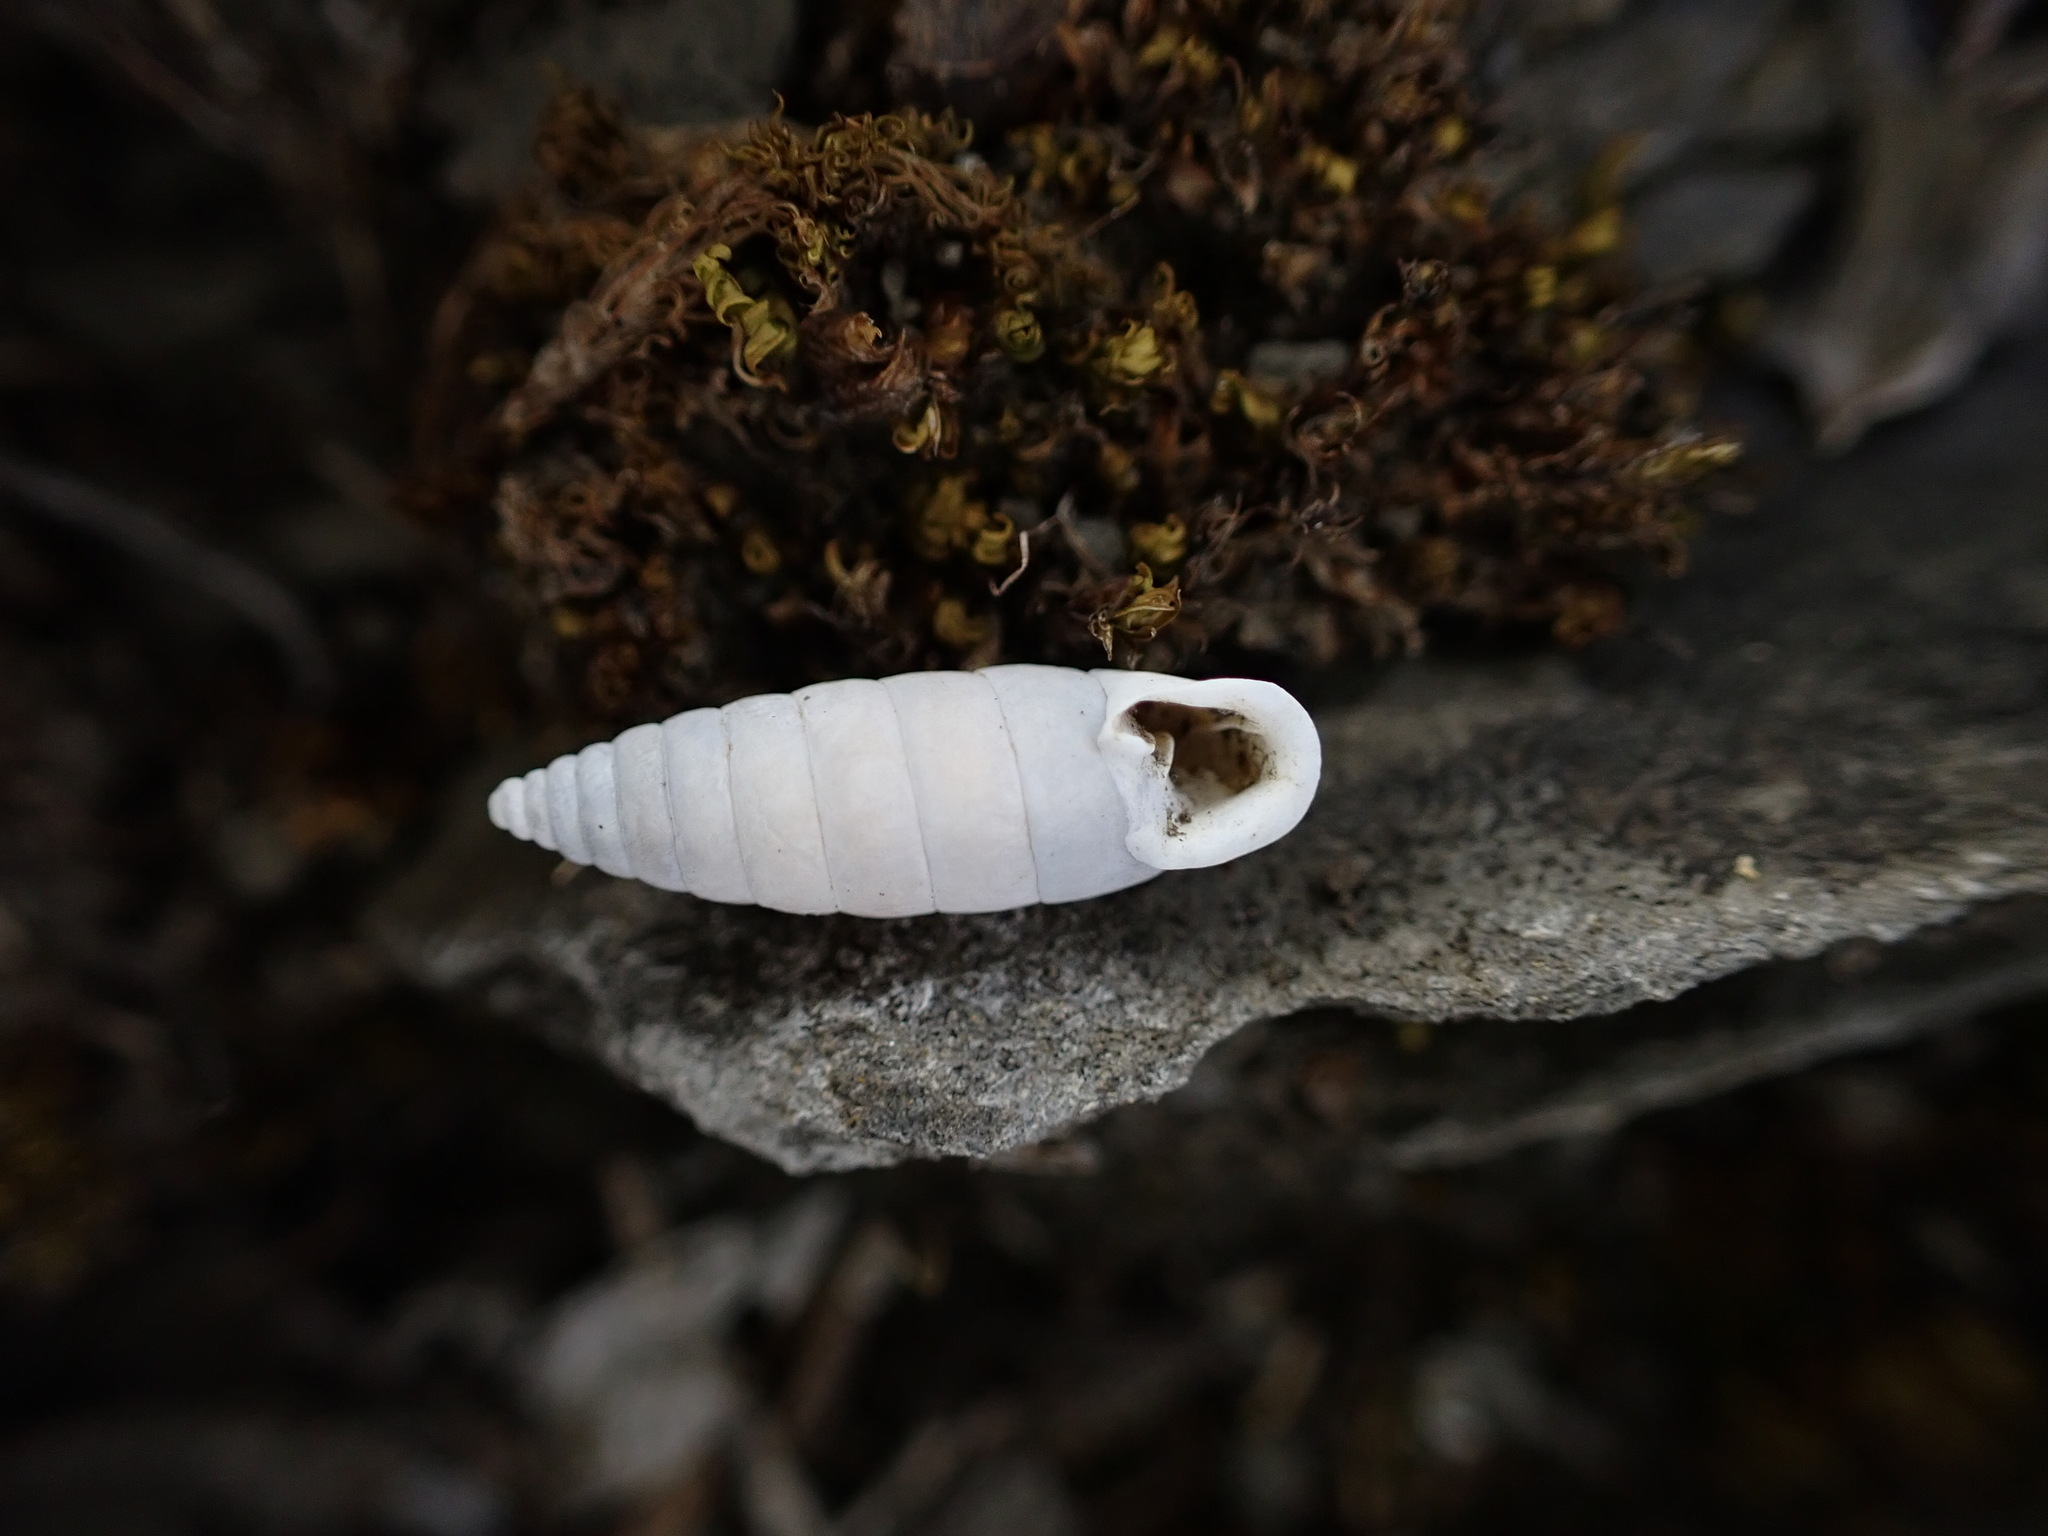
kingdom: Animalia
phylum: Mollusca
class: Gastropoda
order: Stylommatophora
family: Chondrinidae
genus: Granaria
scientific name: Granaria variabilis
